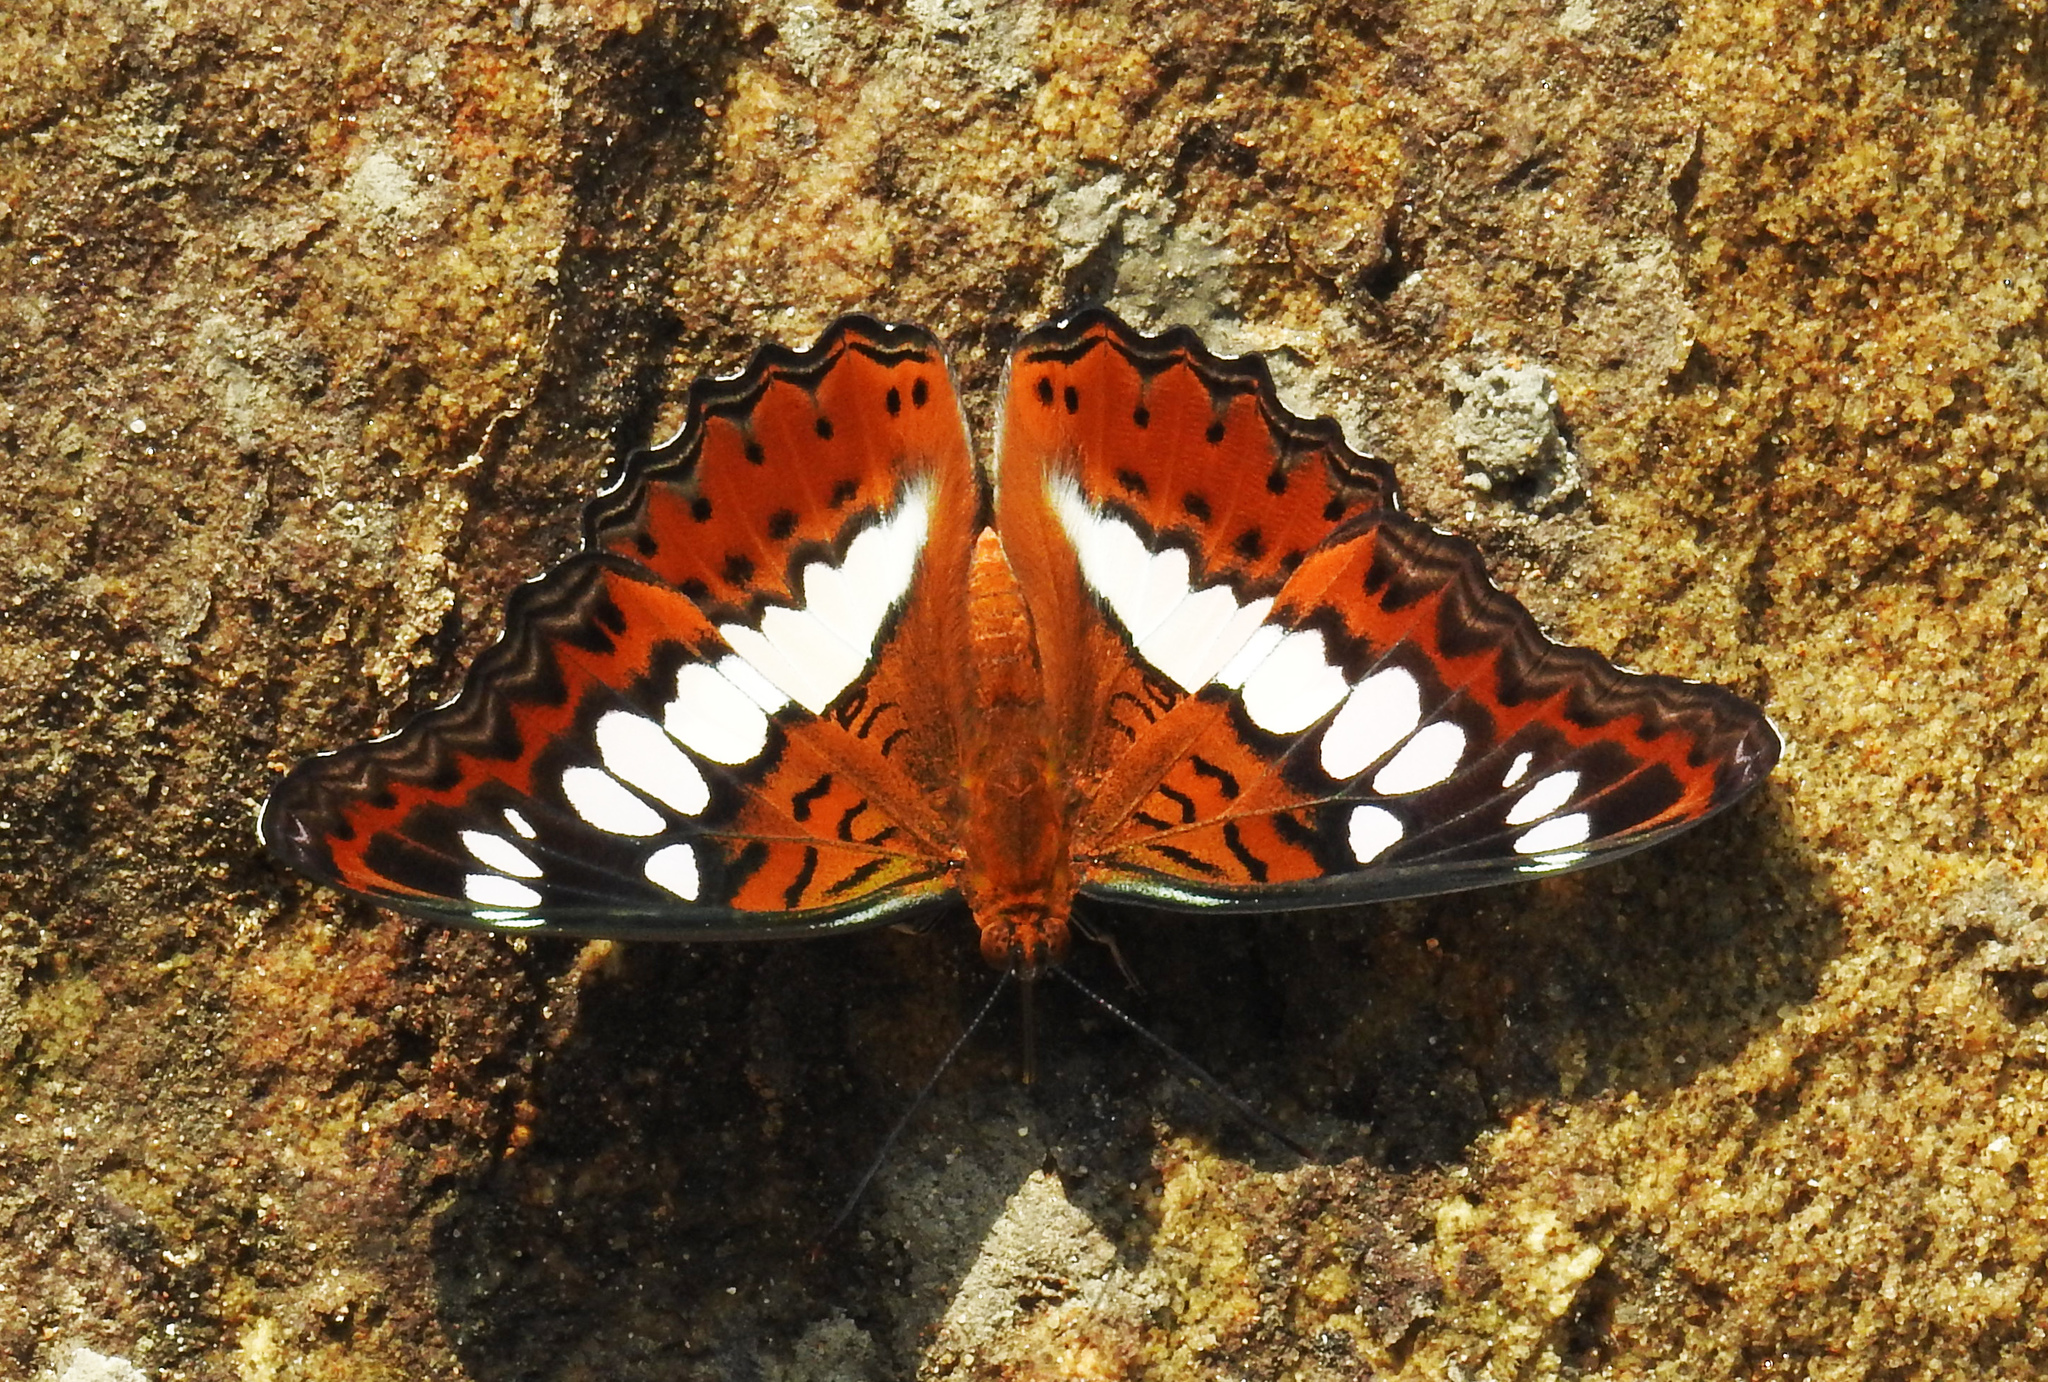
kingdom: Animalia
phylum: Arthropoda
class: Insecta
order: Lepidoptera
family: Nymphalidae
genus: Limenitis
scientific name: Limenitis Moduza procris
